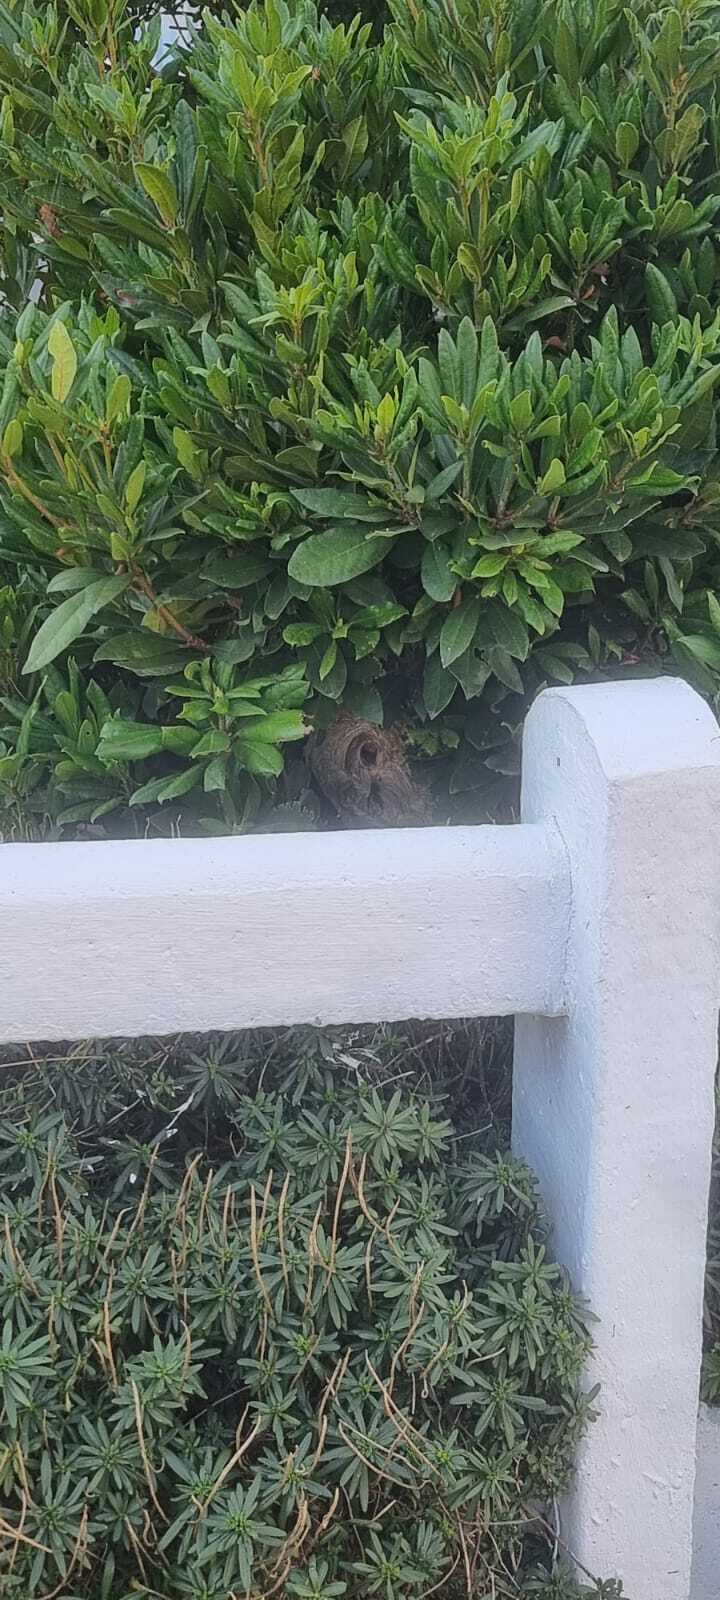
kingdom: Animalia
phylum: Arthropoda
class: Insecta
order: Hymenoptera
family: Vespidae
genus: Vespa
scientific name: Vespa velutina
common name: Asian hornet
